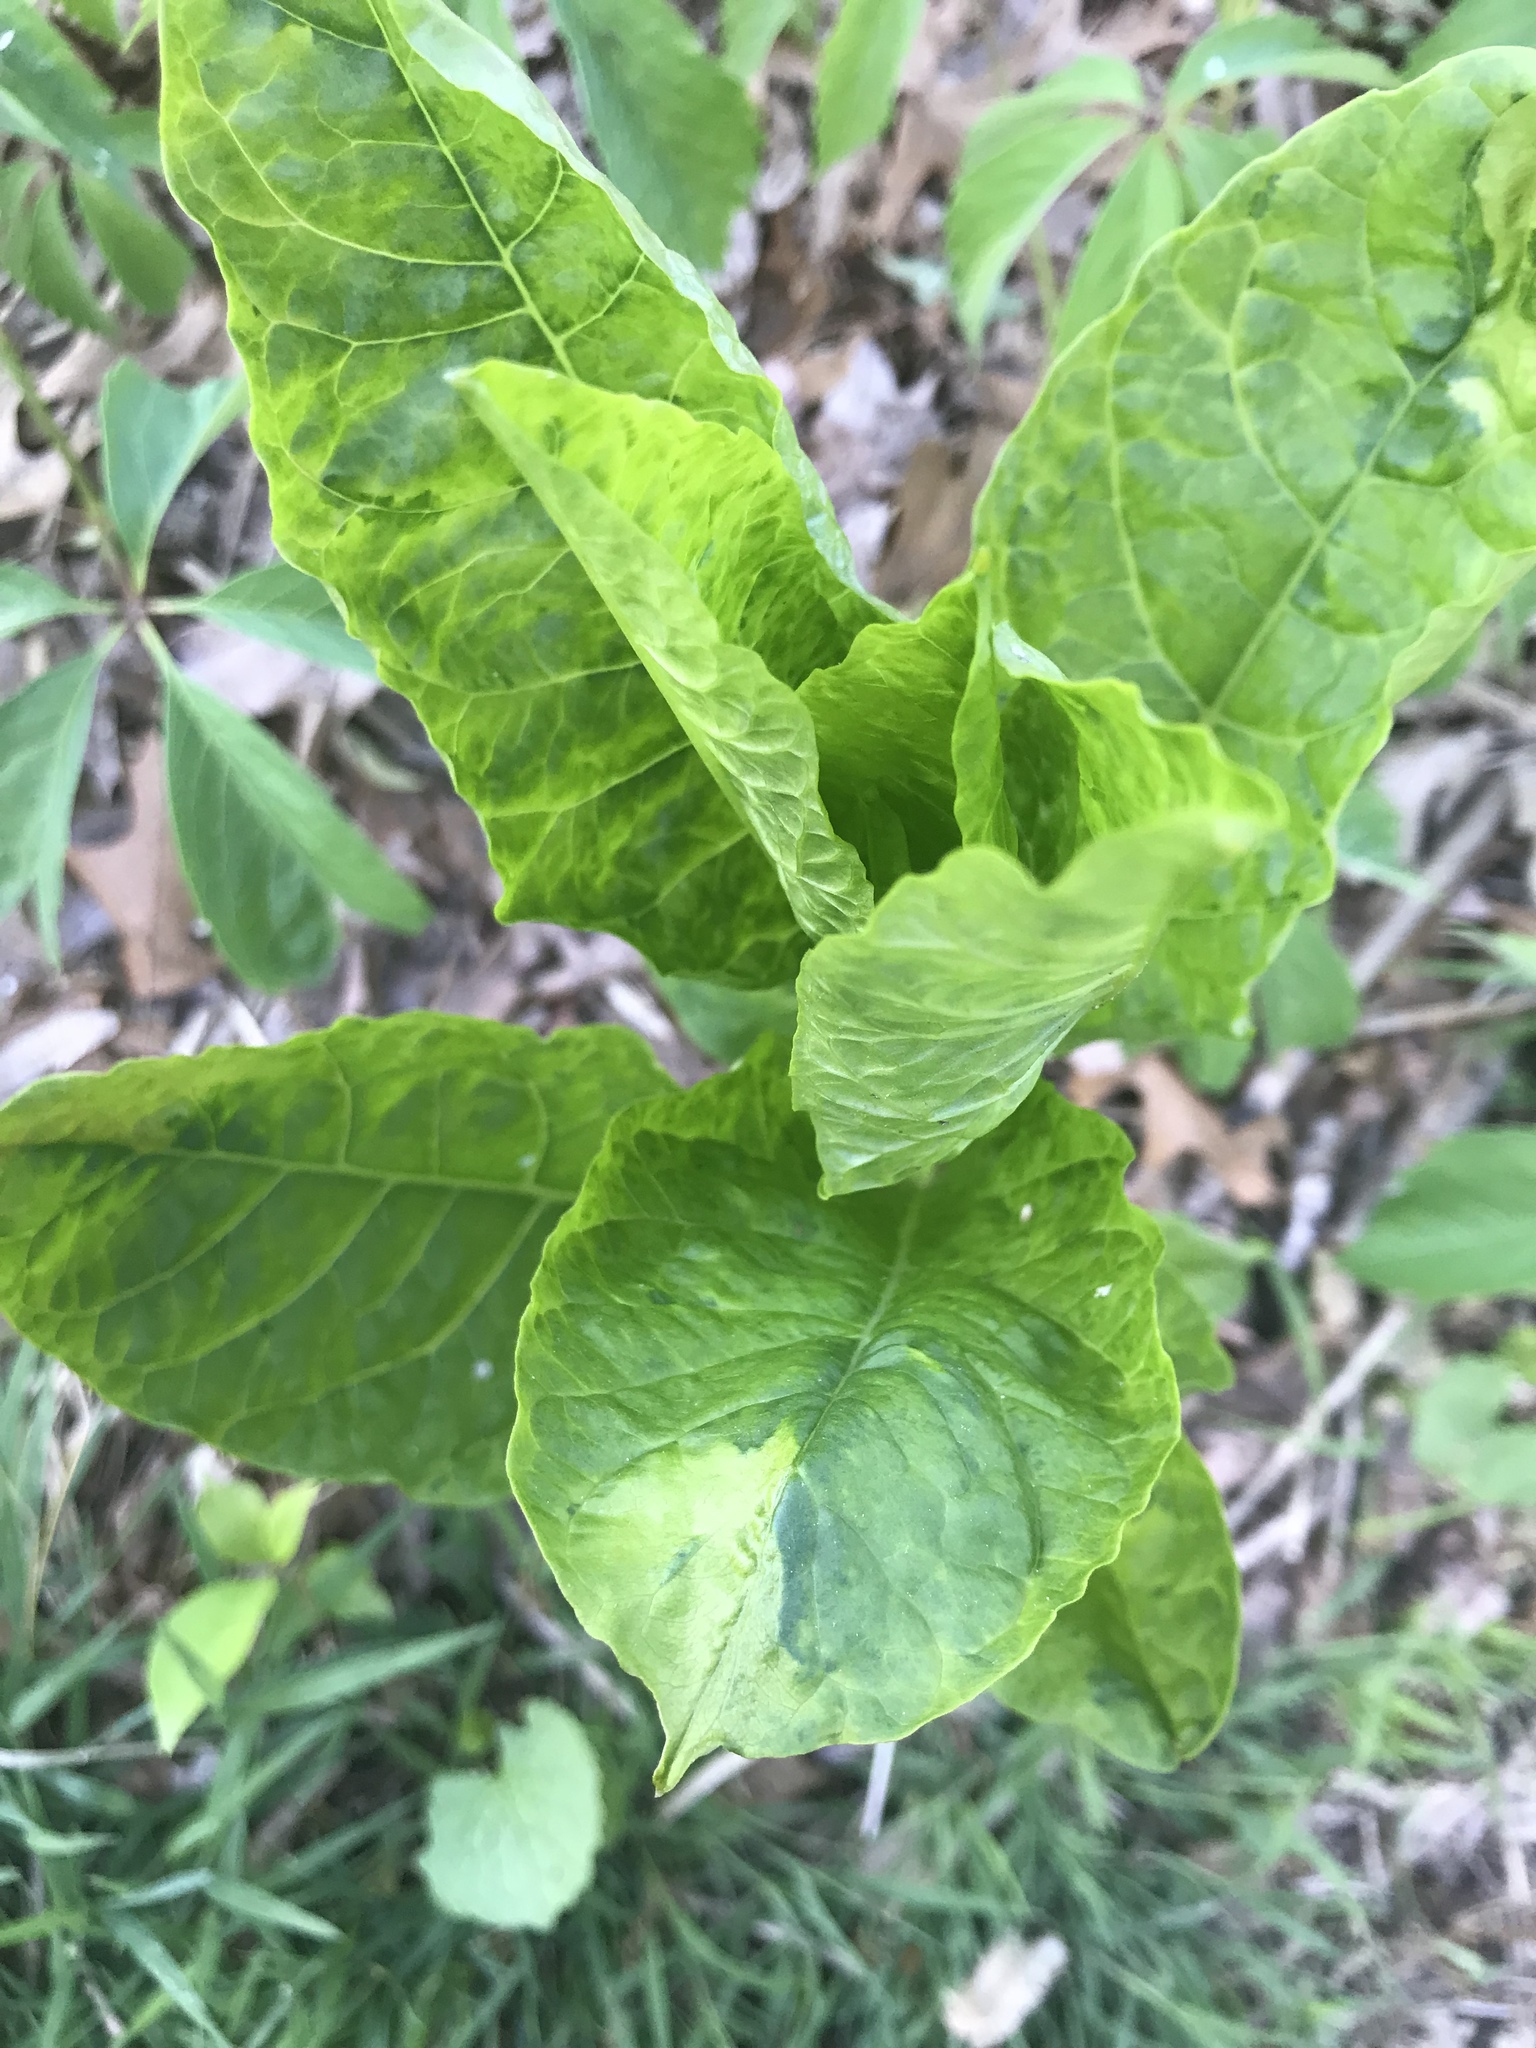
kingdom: Plantae
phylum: Tracheophyta
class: Magnoliopsida
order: Caryophyllales
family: Phytolaccaceae
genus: Phytolacca
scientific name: Phytolacca americana
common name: American pokeweed
